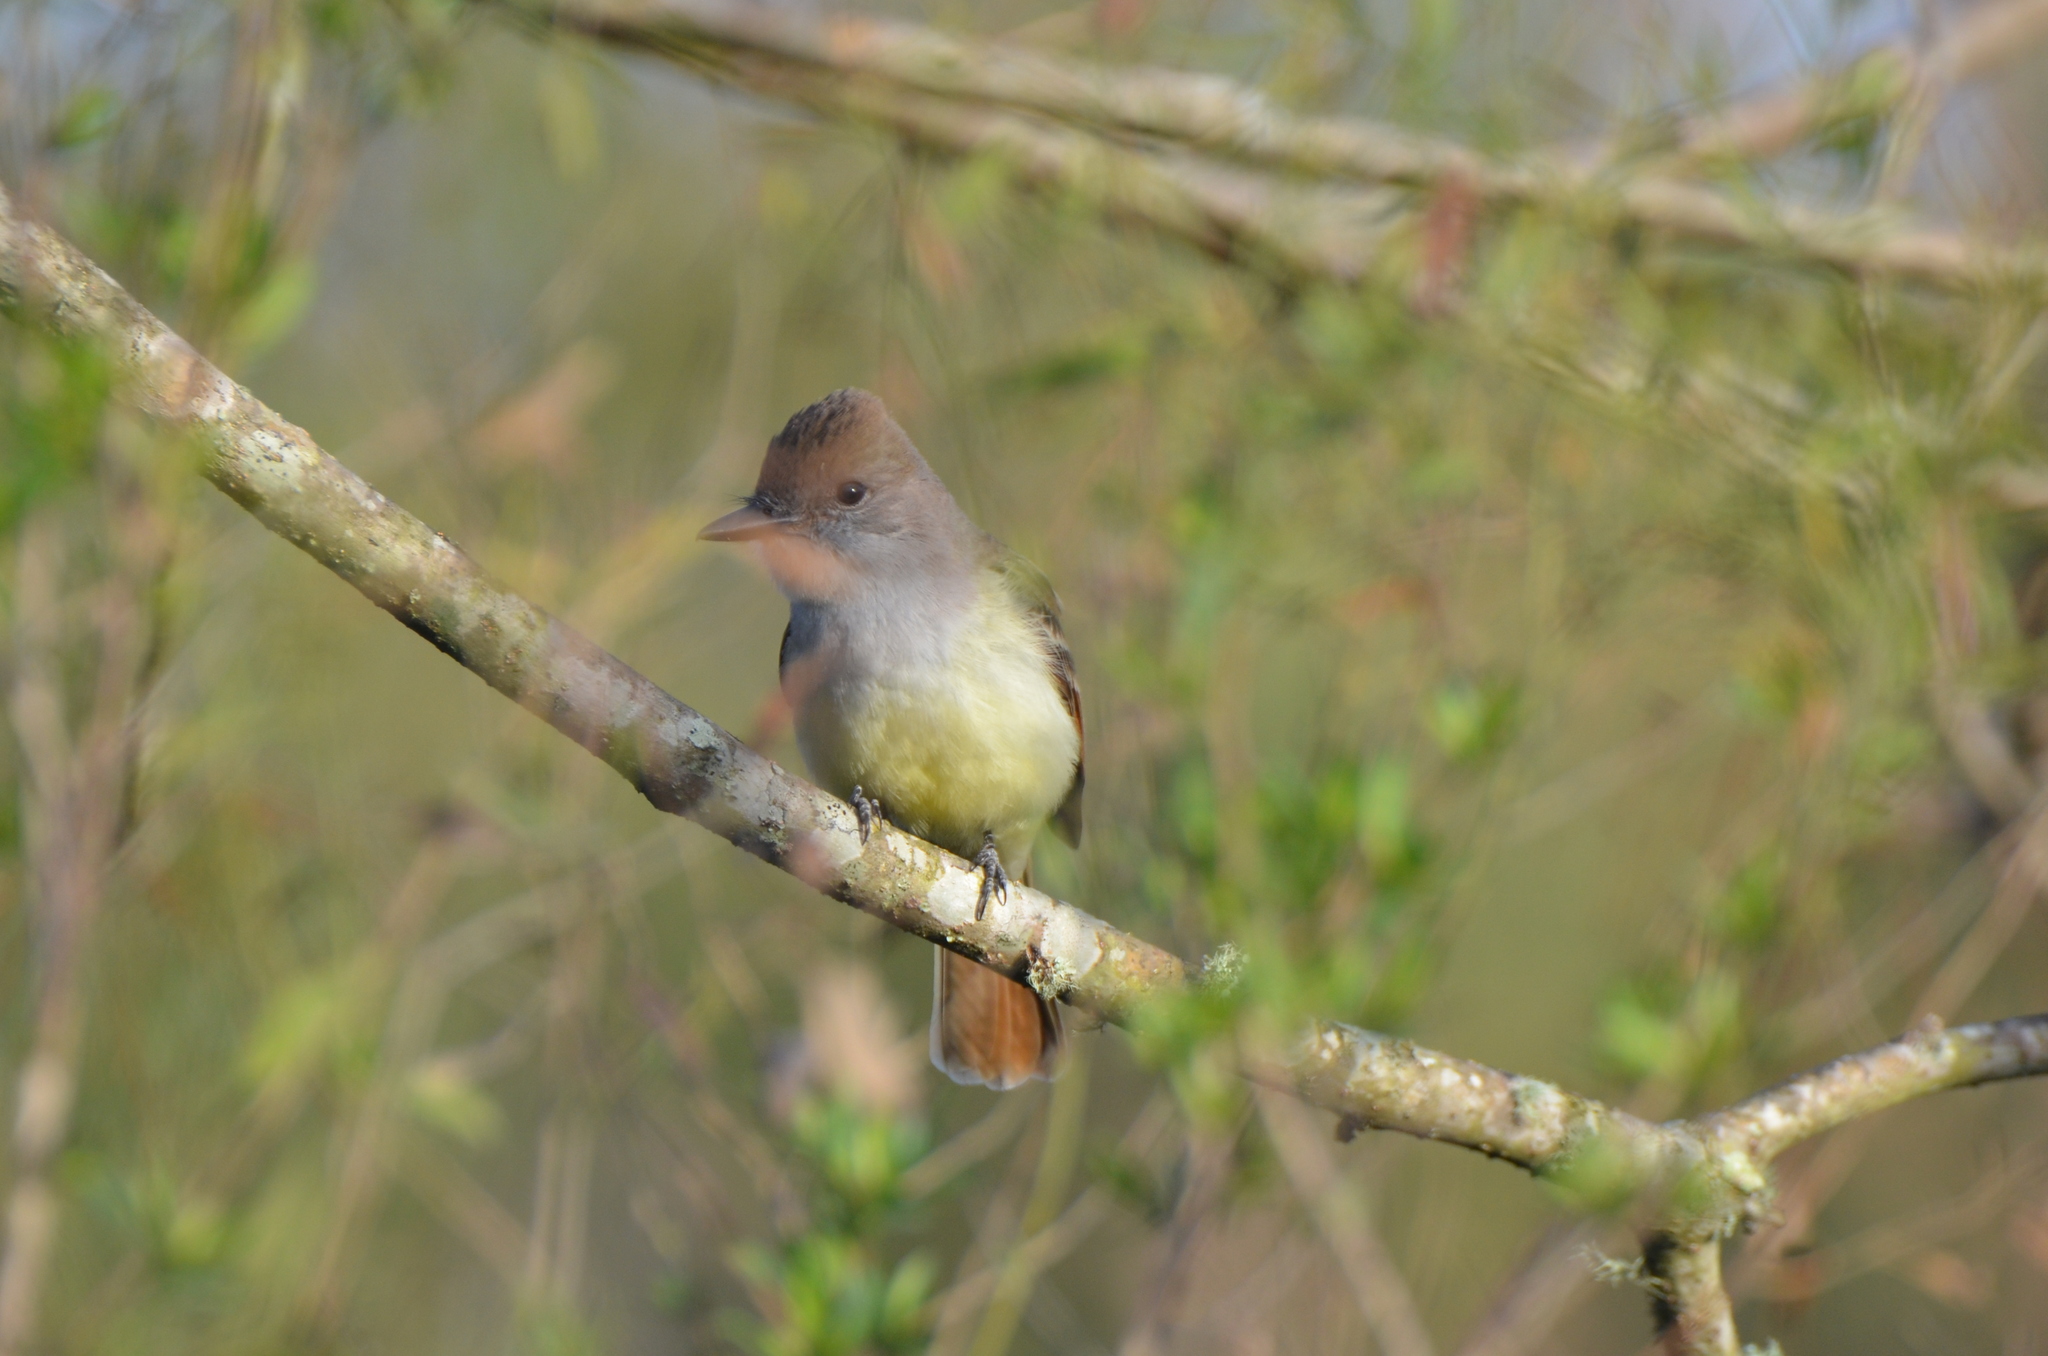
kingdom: Animalia
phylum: Chordata
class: Aves
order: Passeriformes
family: Tyrannidae
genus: Myiarchus
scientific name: Myiarchus tyrannulus
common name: Brown-crested flycatcher
